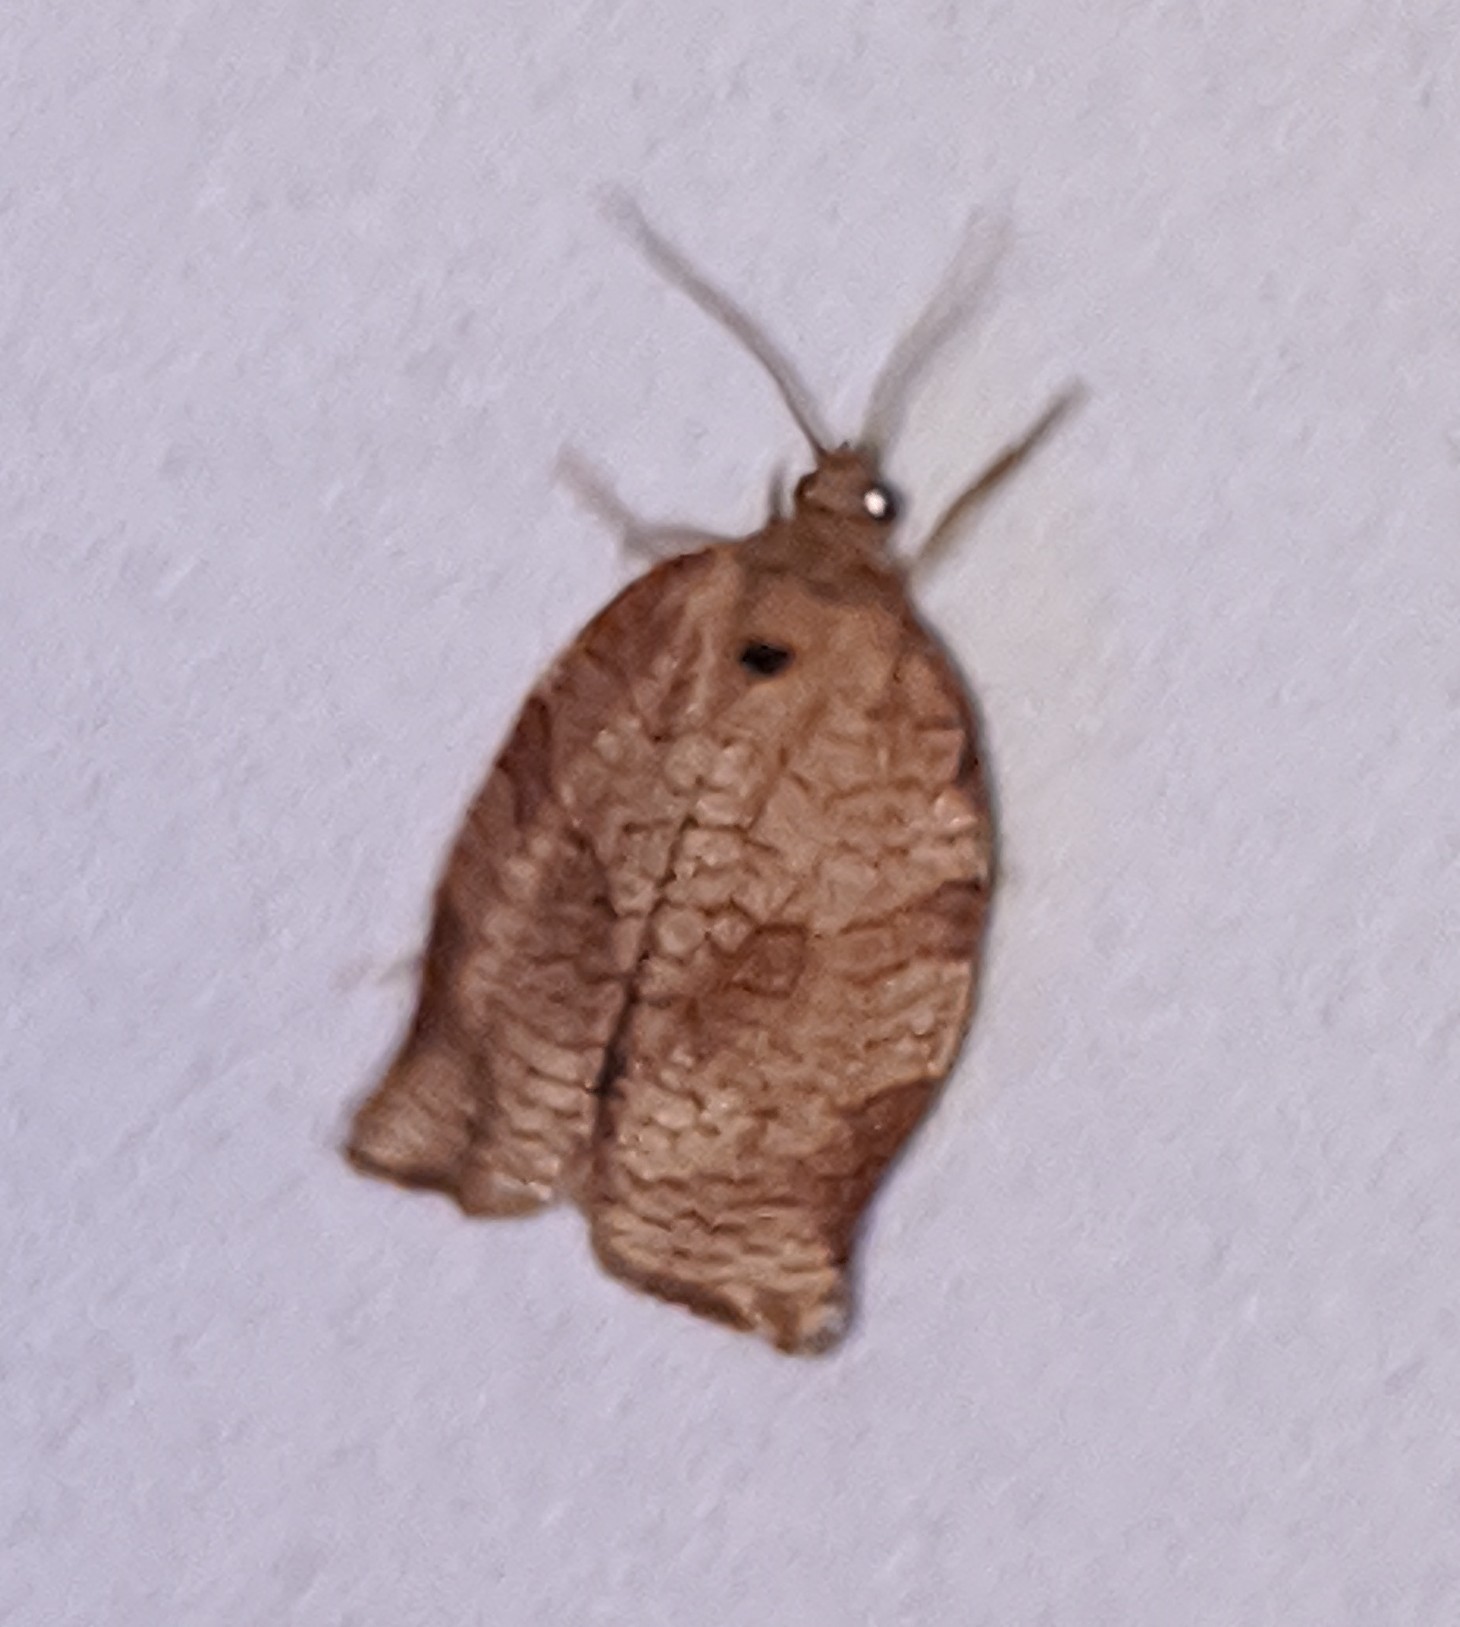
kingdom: Animalia
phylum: Arthropoda
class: Insecta
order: Lepidoptera
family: Tortricidae
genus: Choristoneura
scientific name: Choristoneura rosaceana
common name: Oblique-banded leafroller moth
